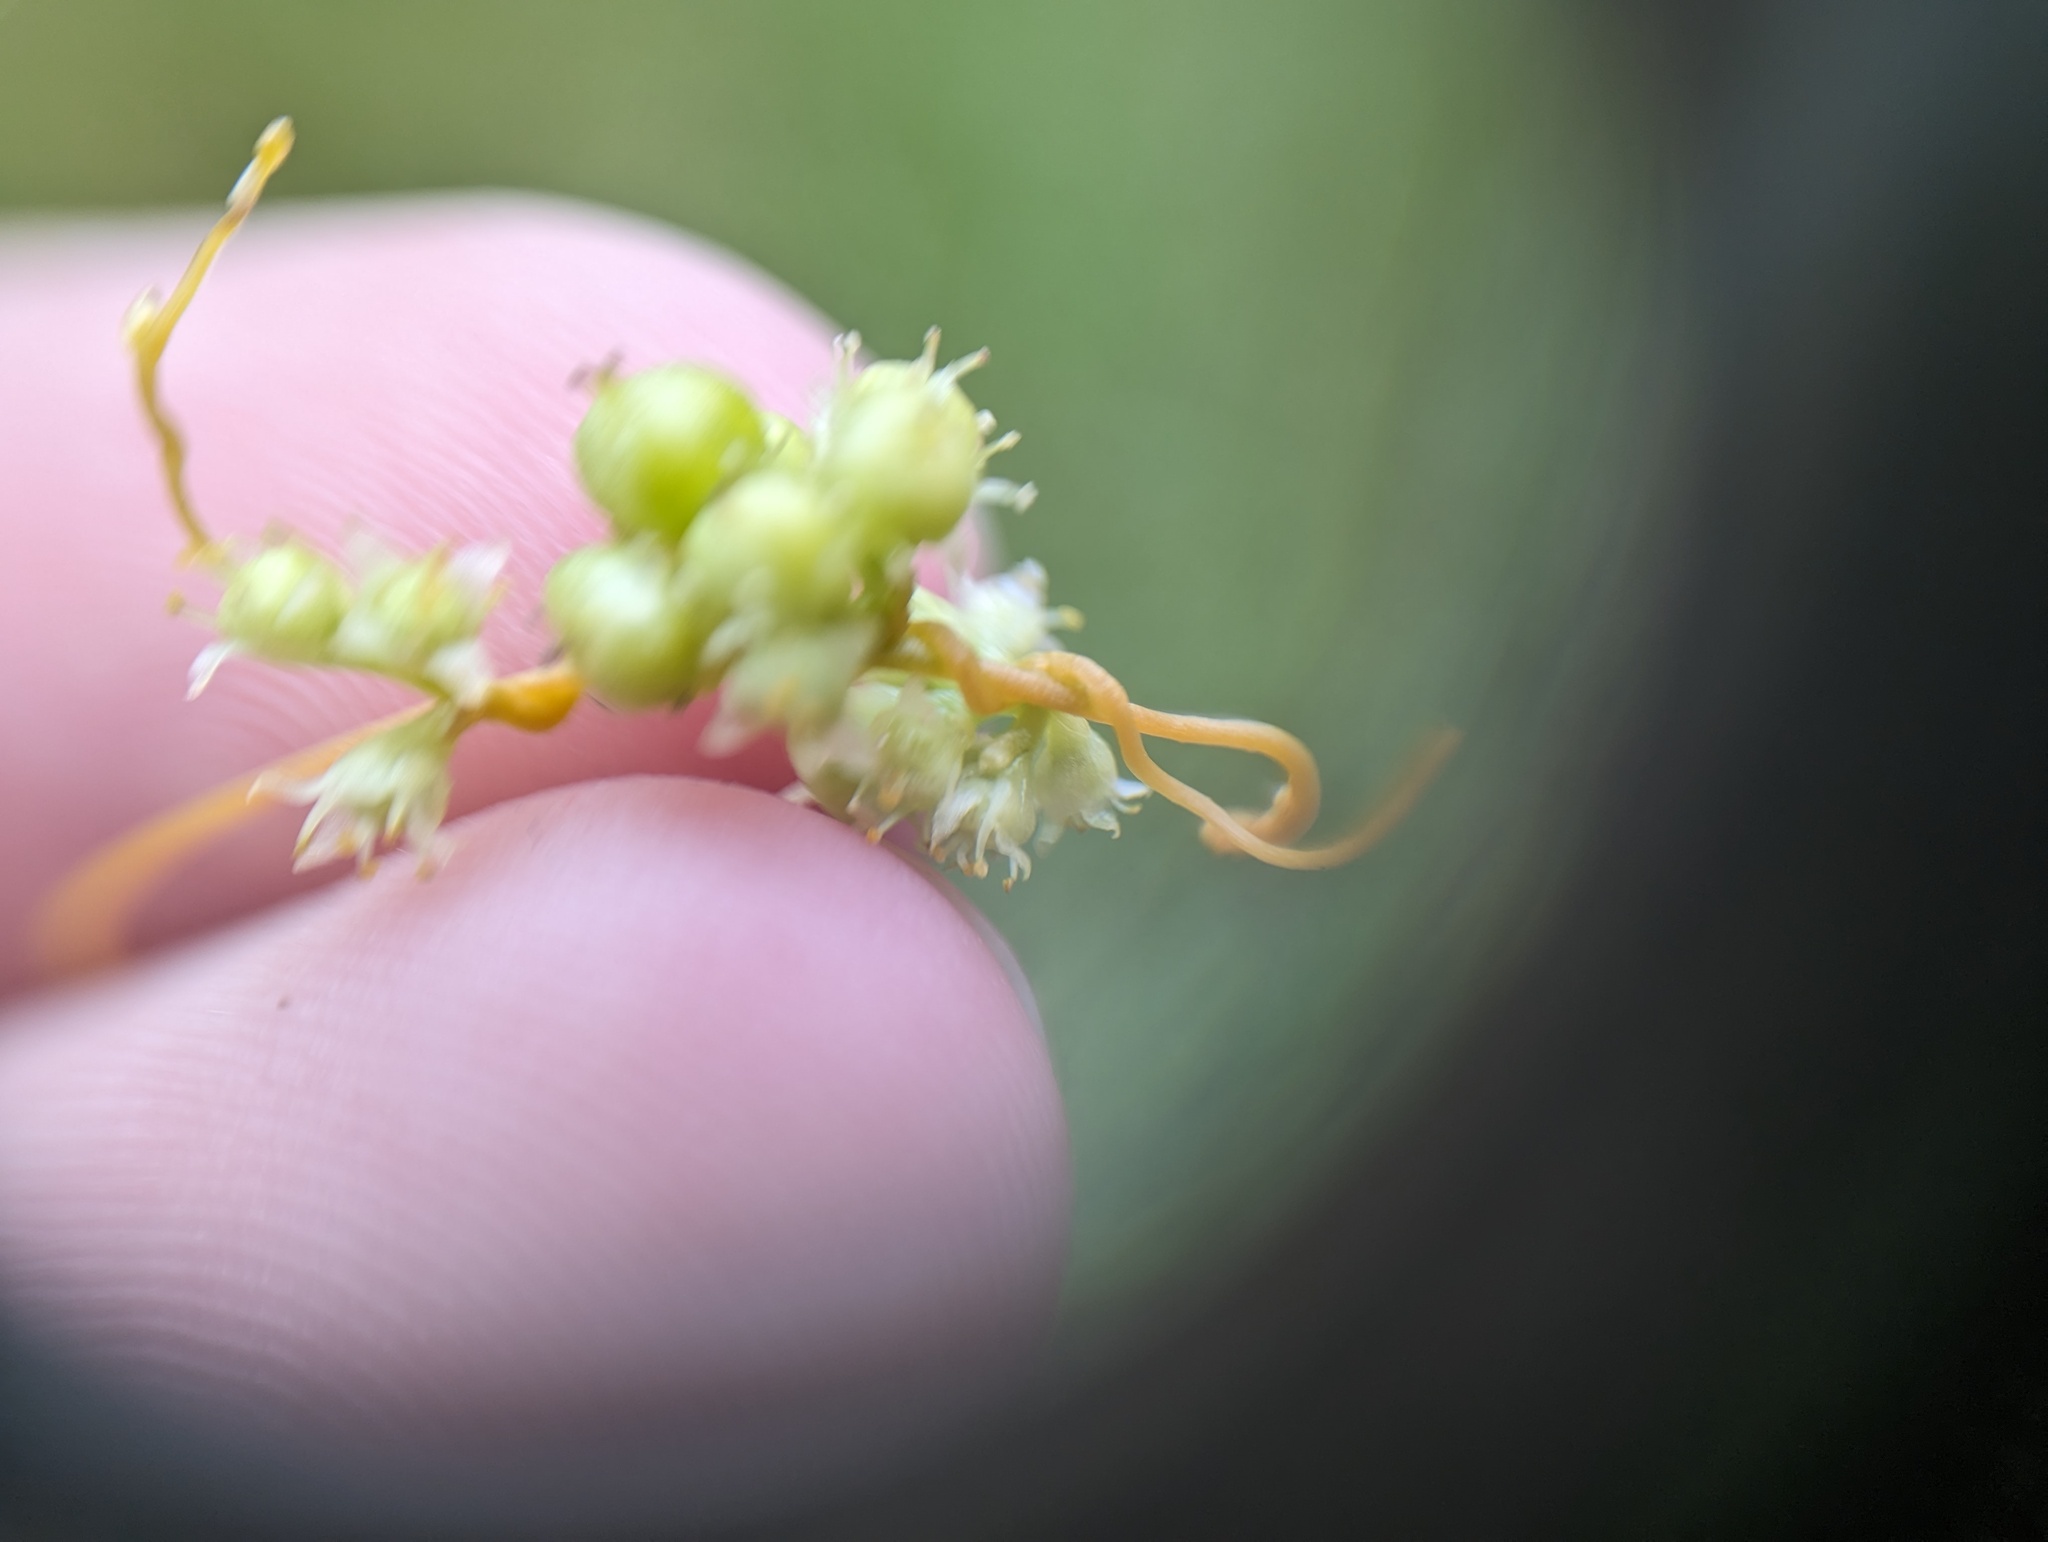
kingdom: Plantae
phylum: Tracheophyta
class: Magnoliopsida
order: Solanales
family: Convolvulaceae
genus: Cuscuta
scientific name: Cuscuta polygonorum
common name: Polygonum dodder
